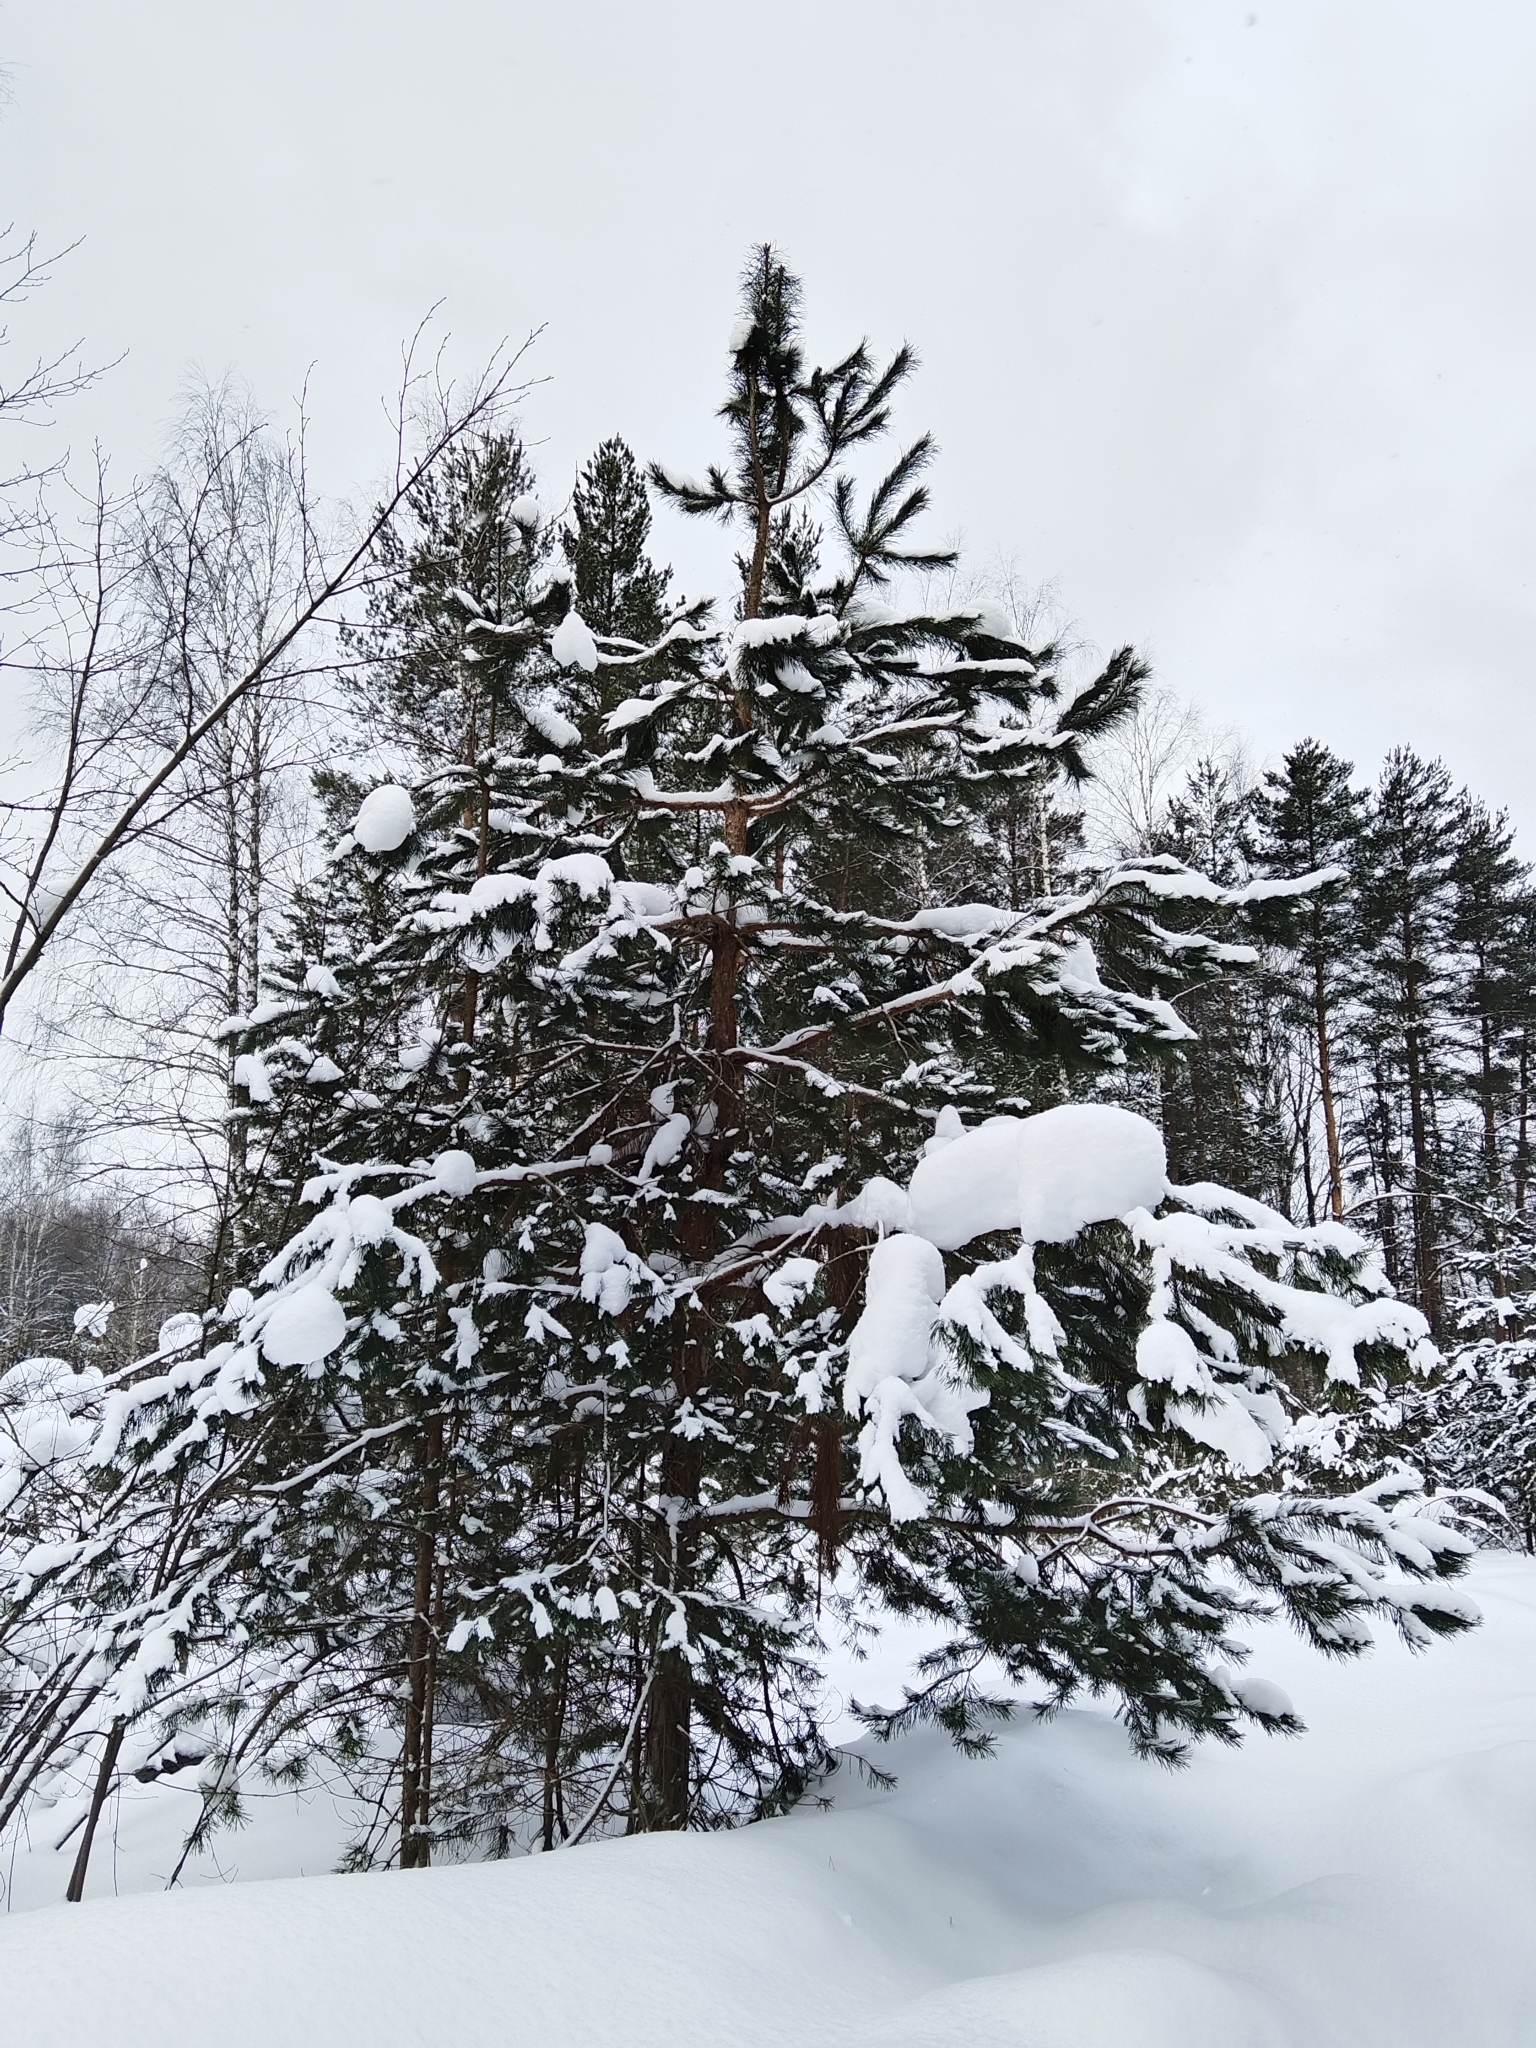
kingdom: Plantae
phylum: Tracheophyta
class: Pinopsida
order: Pinales
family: Pinaceae
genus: Pinus
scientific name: Pinus sylvestris
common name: Scots pine
